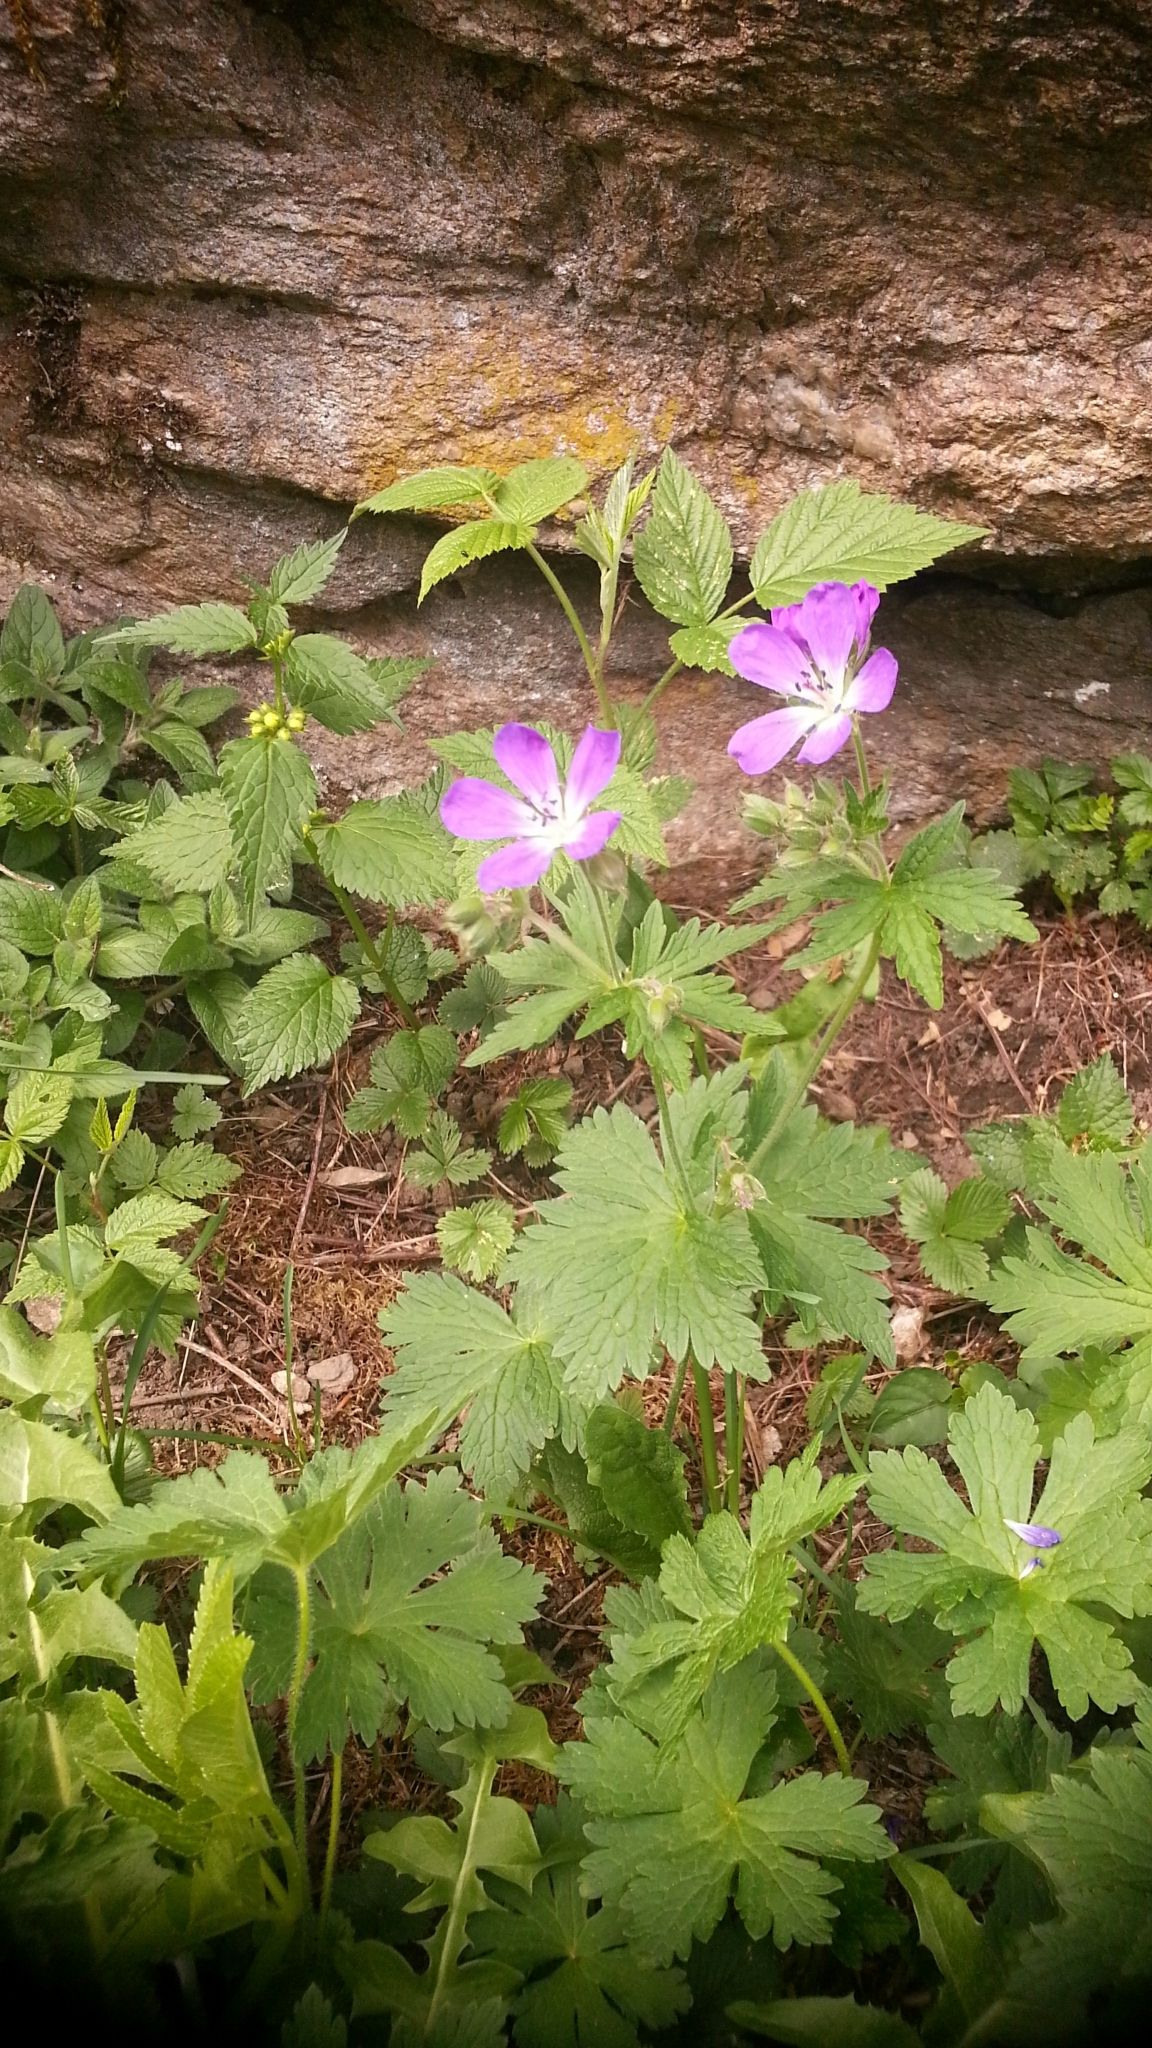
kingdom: Plantae
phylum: Tracheophyta
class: Magnoliopsida
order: Geraniales
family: Geraniaceae
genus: Geranium
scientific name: Geranium sylvaticum
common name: Wood crane's-bill
